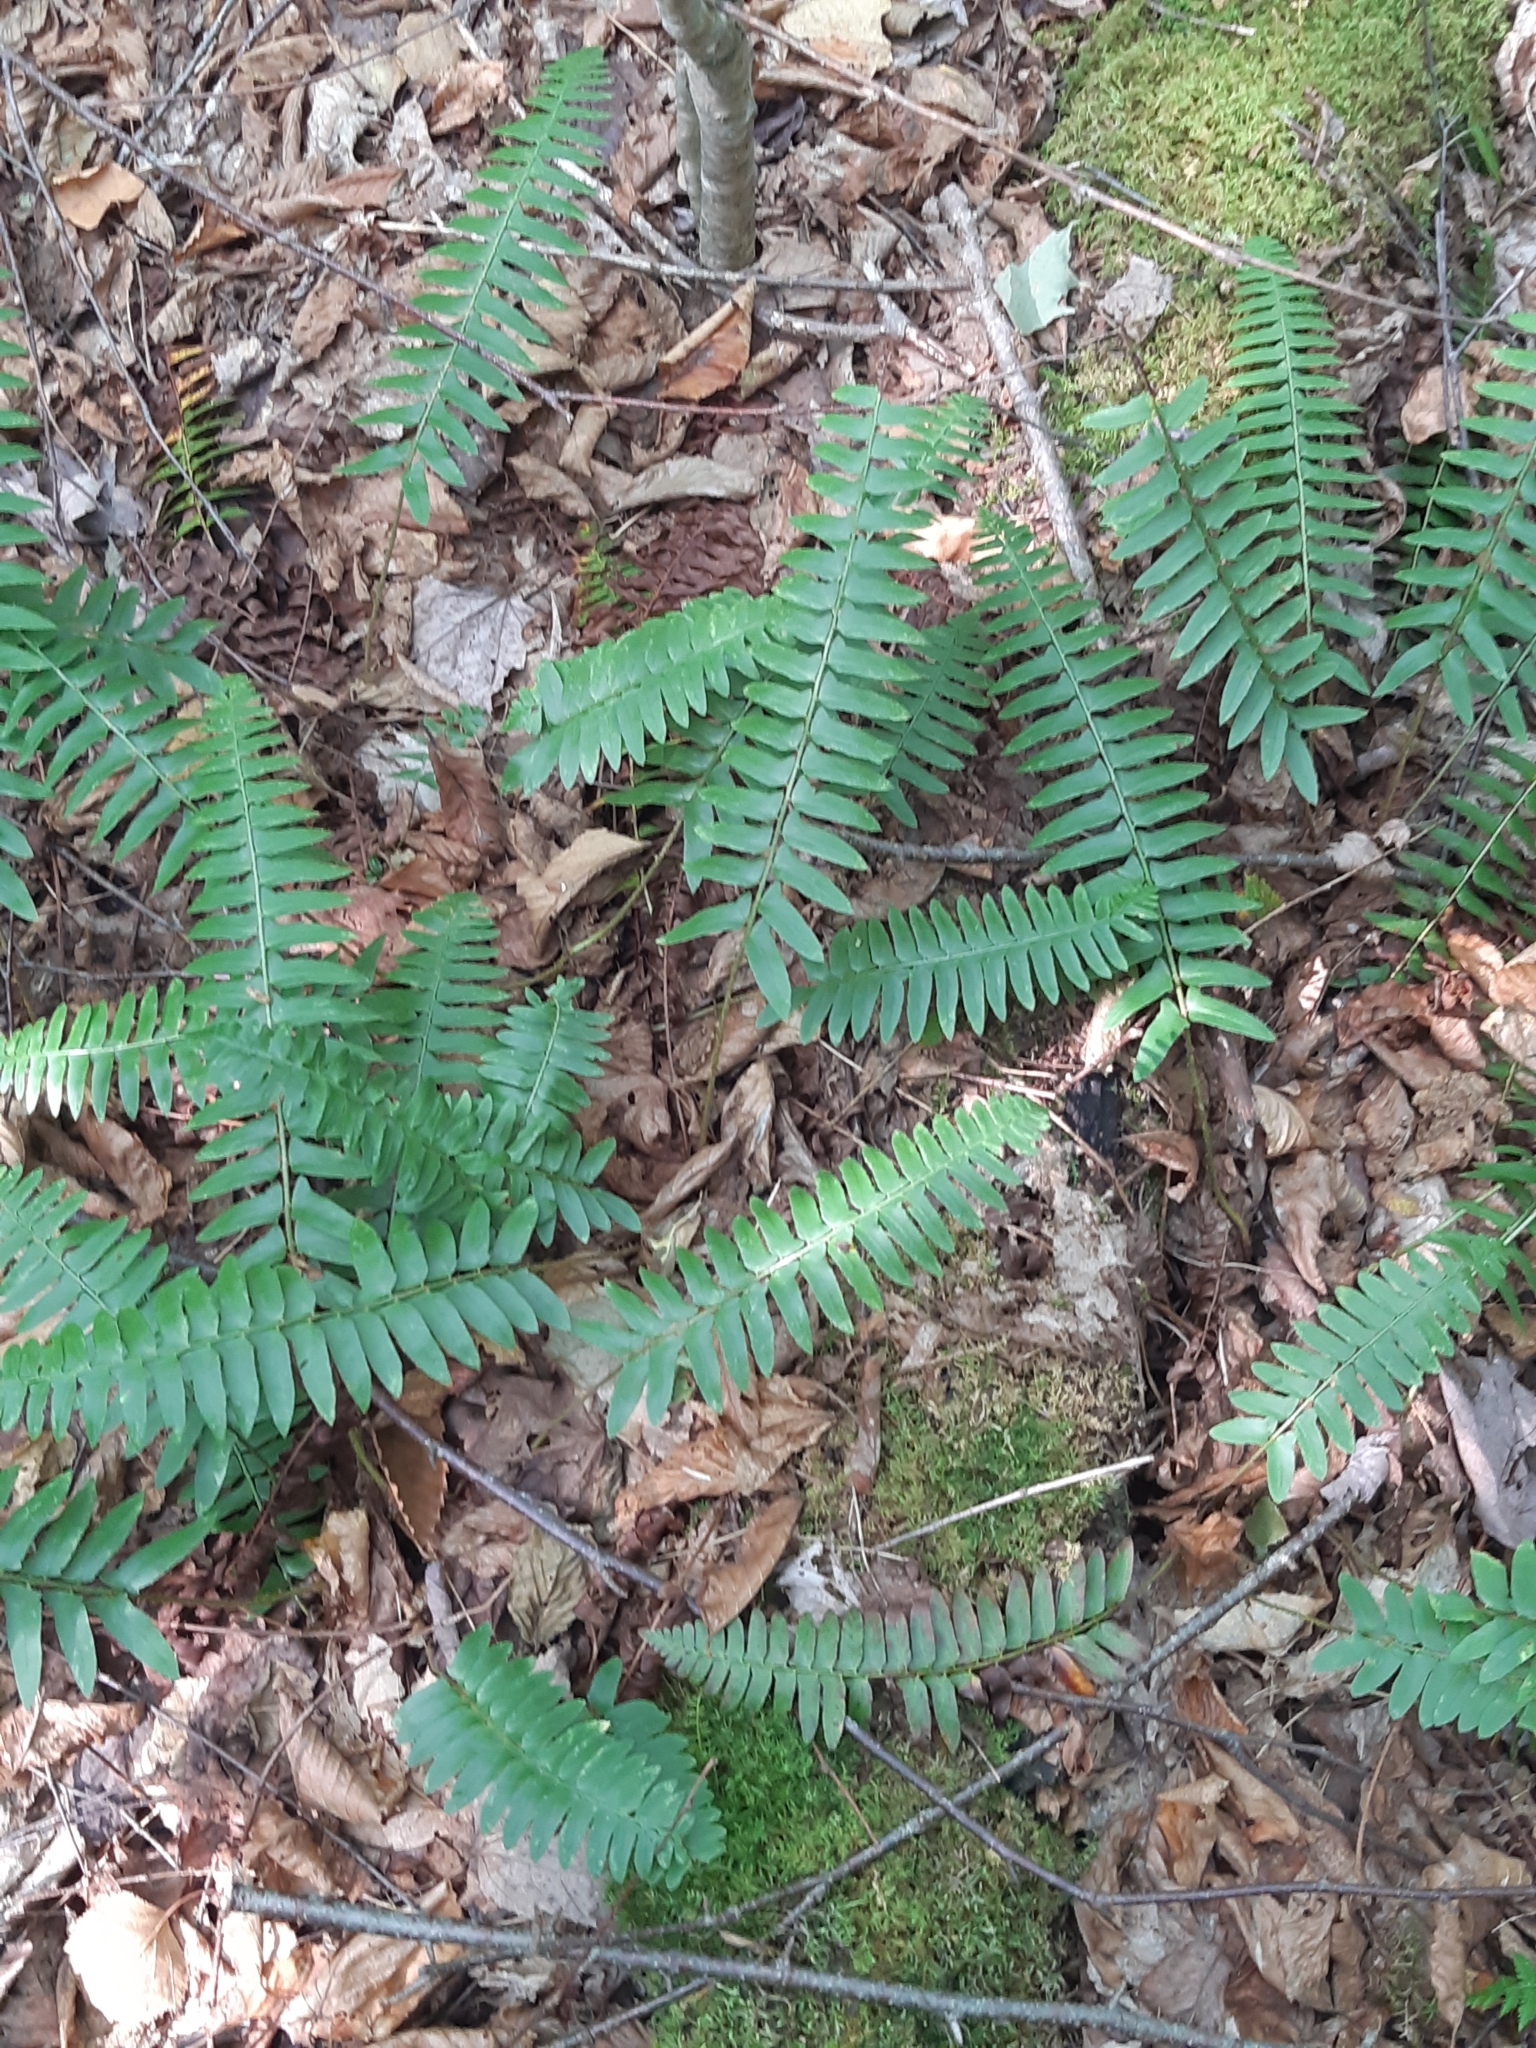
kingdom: Plantae
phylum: Tracheophyta
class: Polypodiopsida
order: Polypodiales
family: Dryopteridaceae
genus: Polystichum
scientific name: Polystichum acrostichoides
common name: Christmas fern
